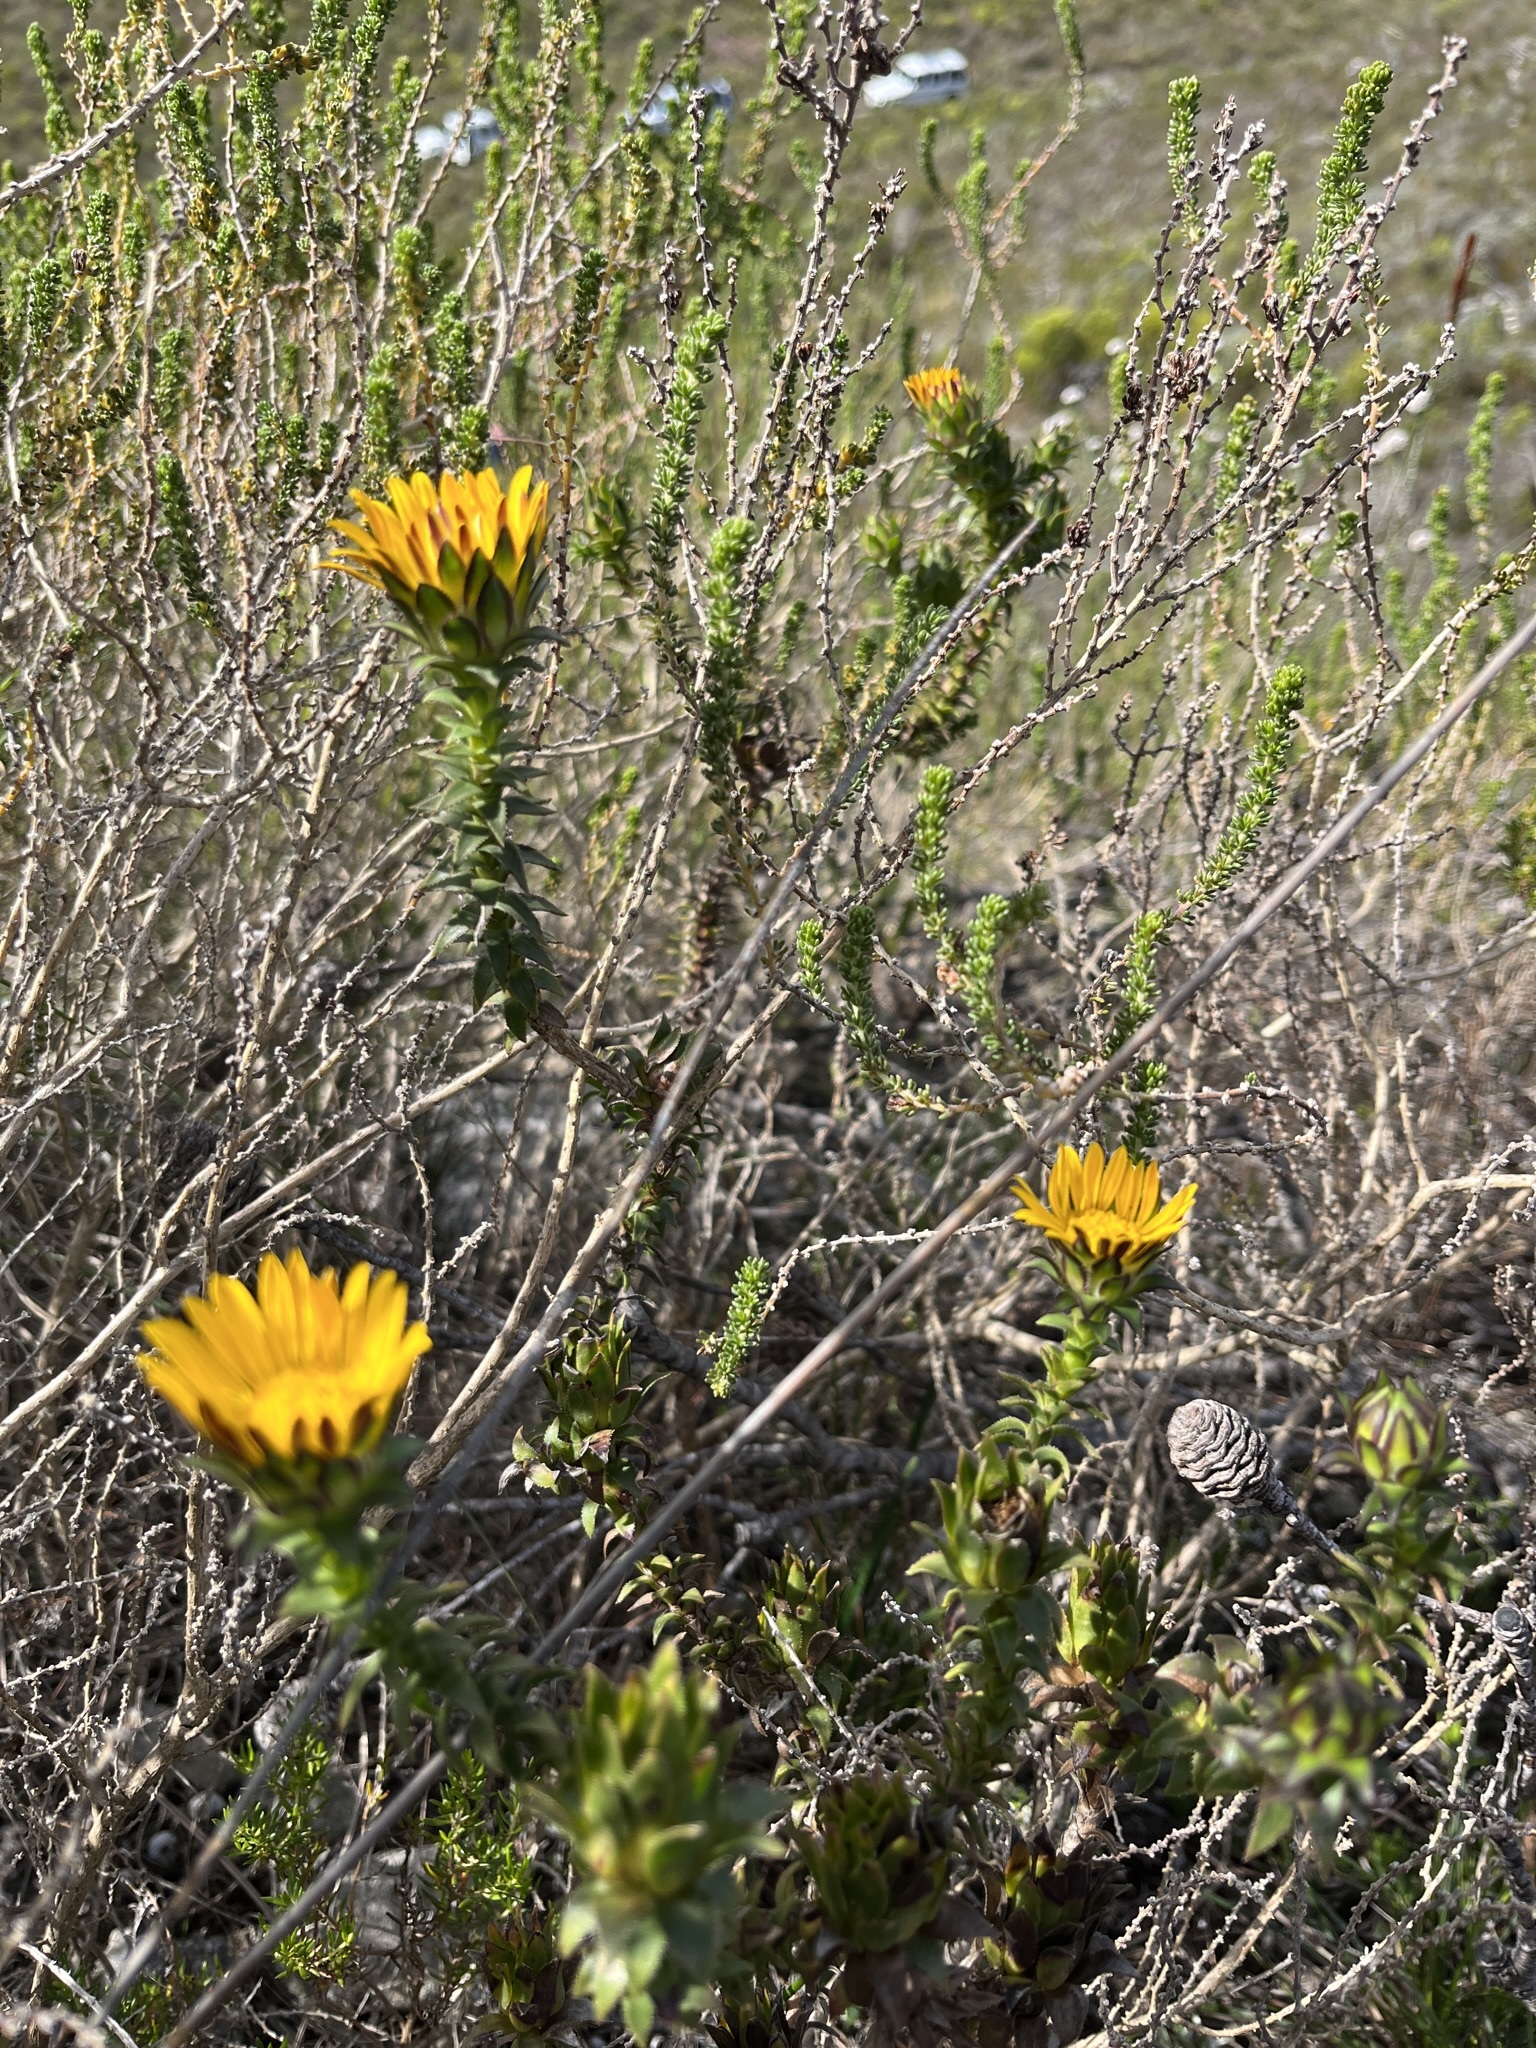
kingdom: Plantae
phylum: Tracheophyta
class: Magnoliopsida
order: Asterales
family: Asteraceae
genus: Oedera
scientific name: Oedera capensis
